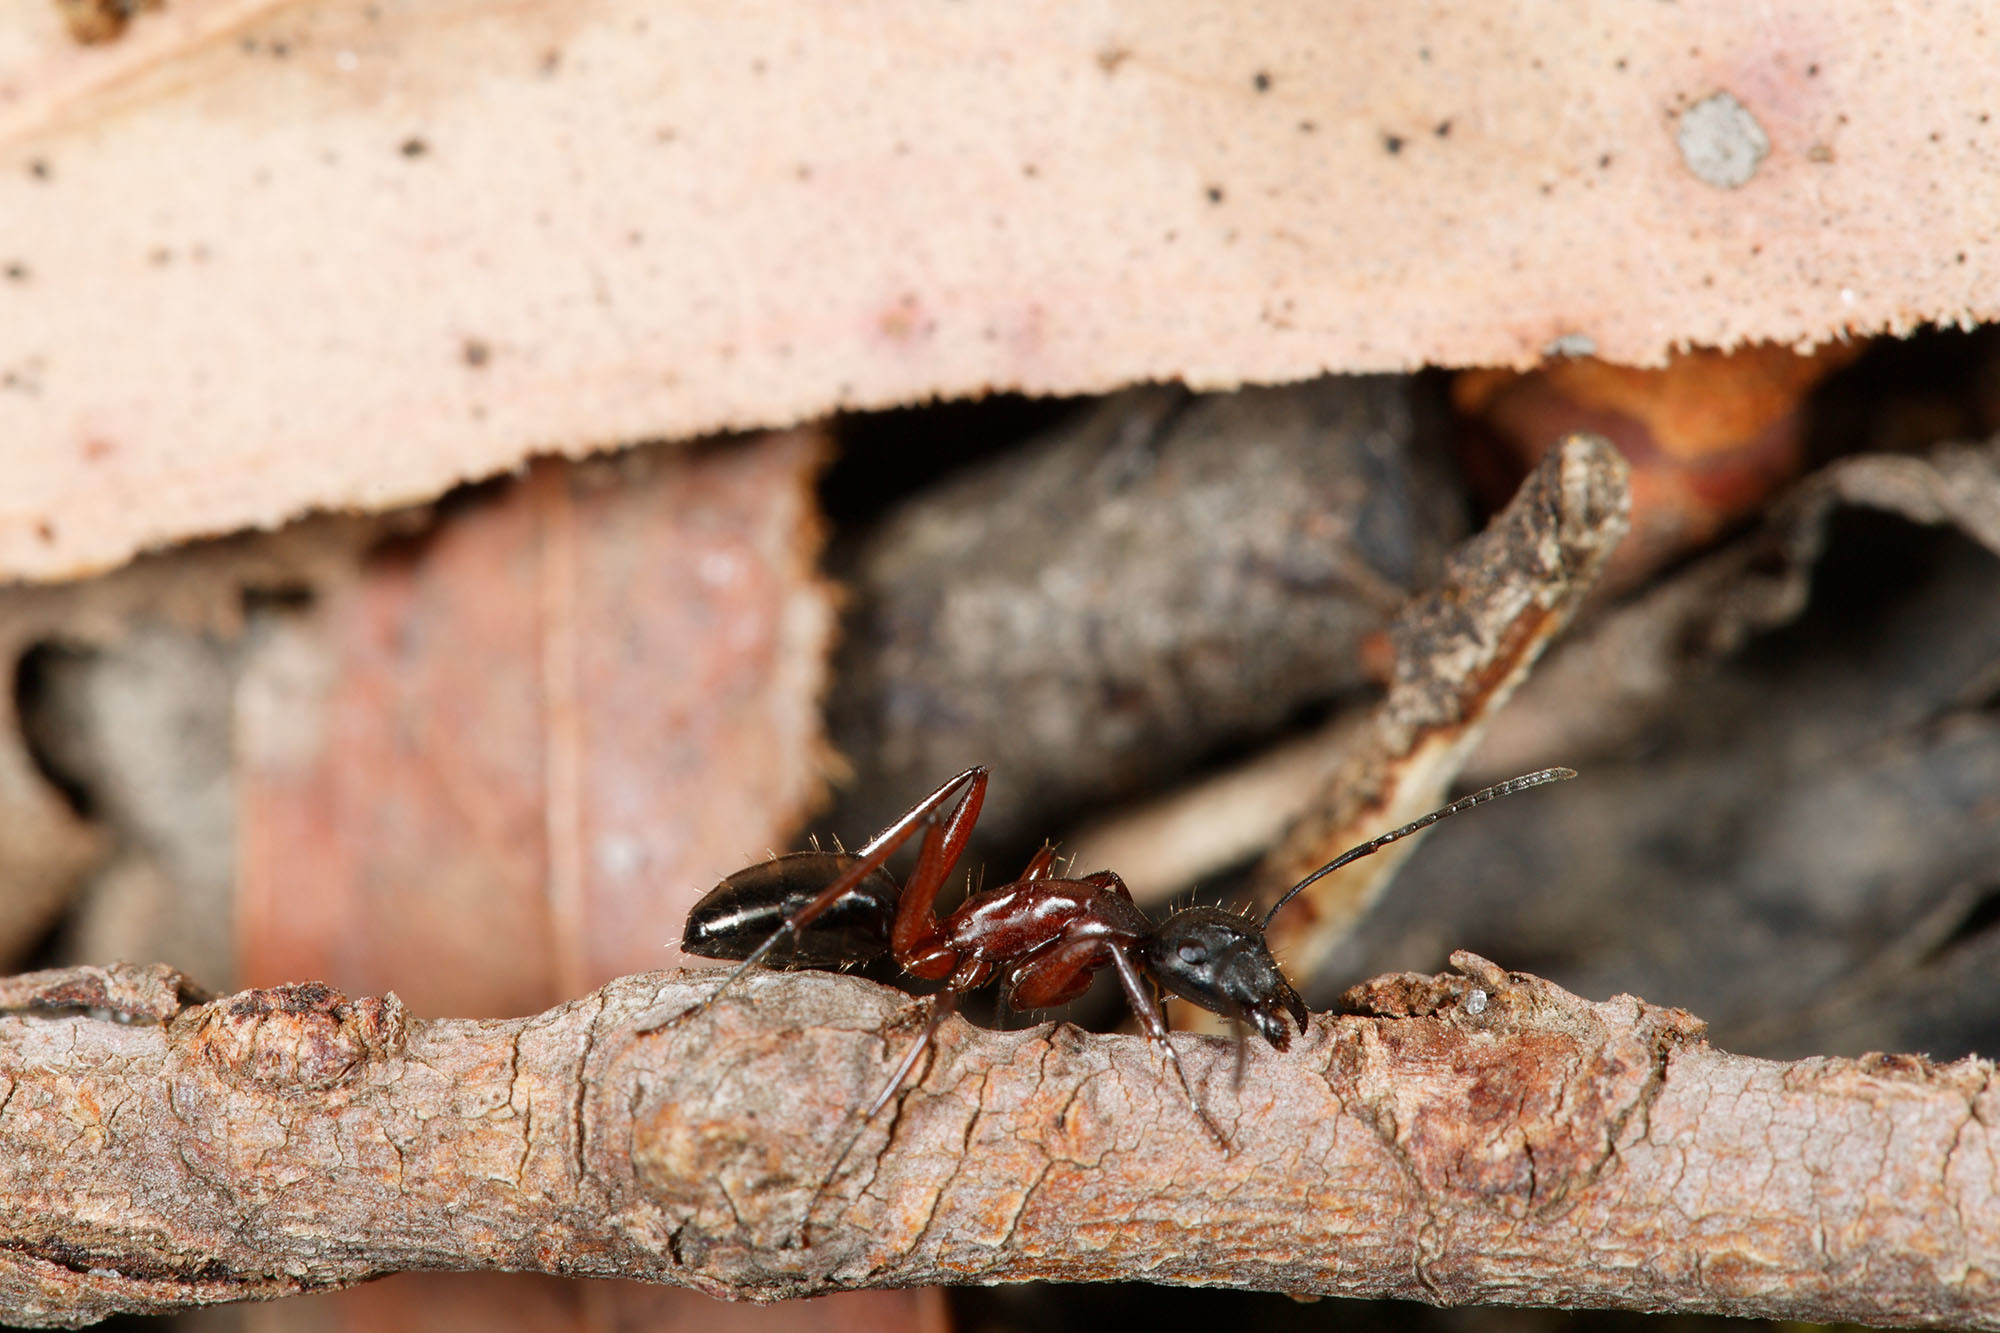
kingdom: Animalia
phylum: Arthropoda
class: Insecta
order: Hymenoptera
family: Formicidae
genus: Camponotus
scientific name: Camponotus innexus
